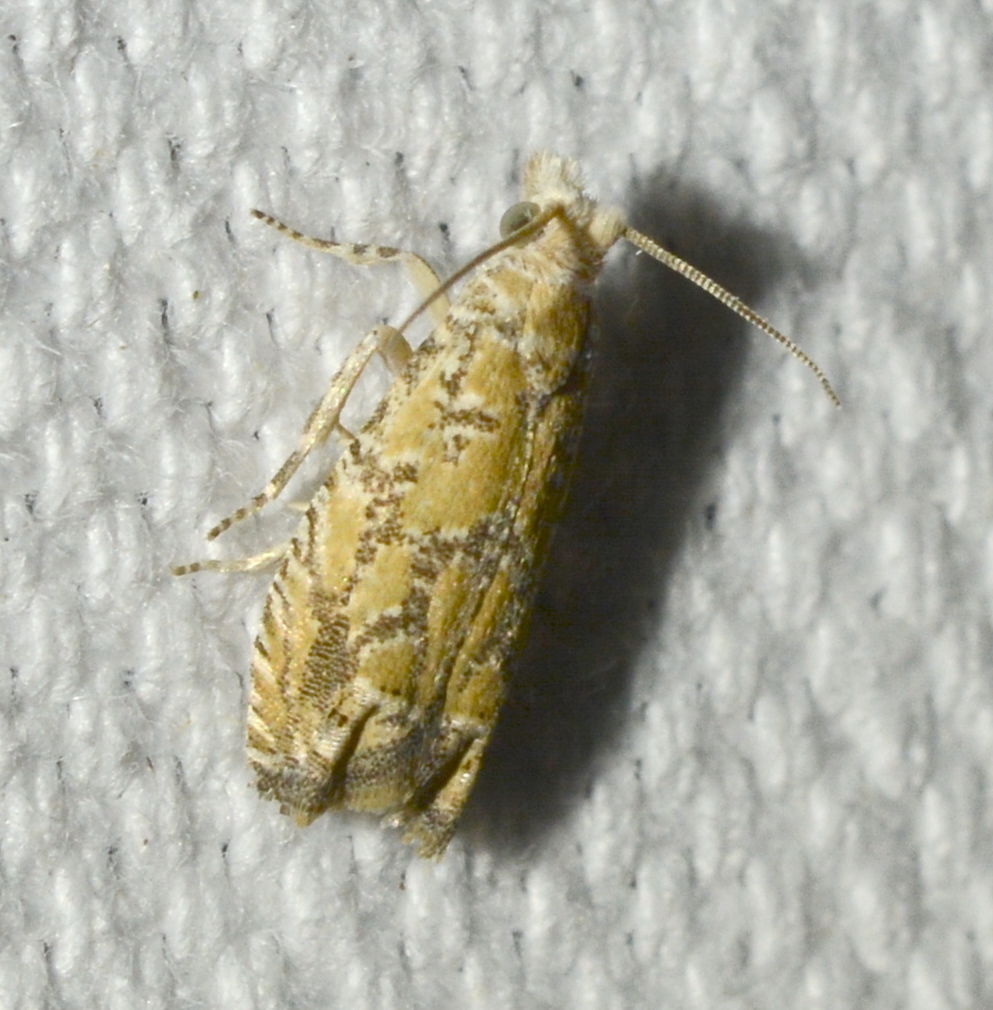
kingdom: Animalia
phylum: Arthropoda
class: Insecta
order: Lepidoptera
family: Tortricidae
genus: Pelochrista
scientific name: Pelochrista pallidipalpana
